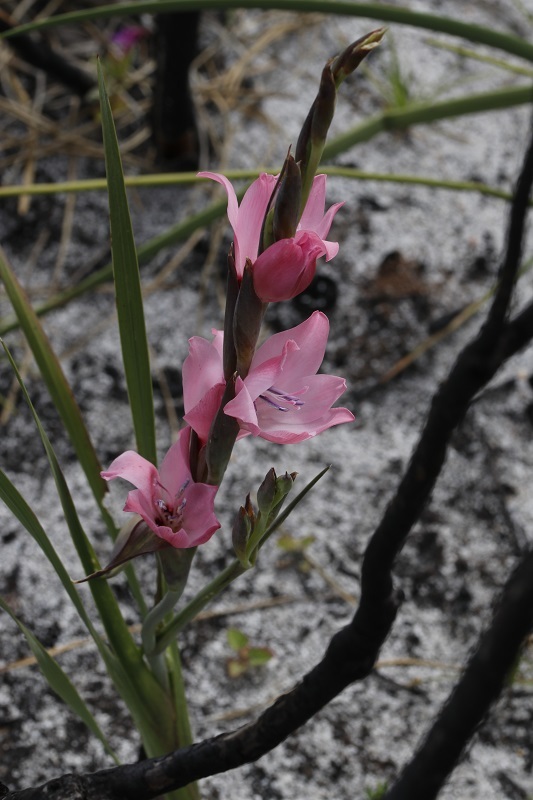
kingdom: Plantae
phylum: Tracheophyta
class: Liliopsida
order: Asparagales
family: Iridaceae
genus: Gladiolus
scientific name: Gladiolus carneus
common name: Painted-lady
